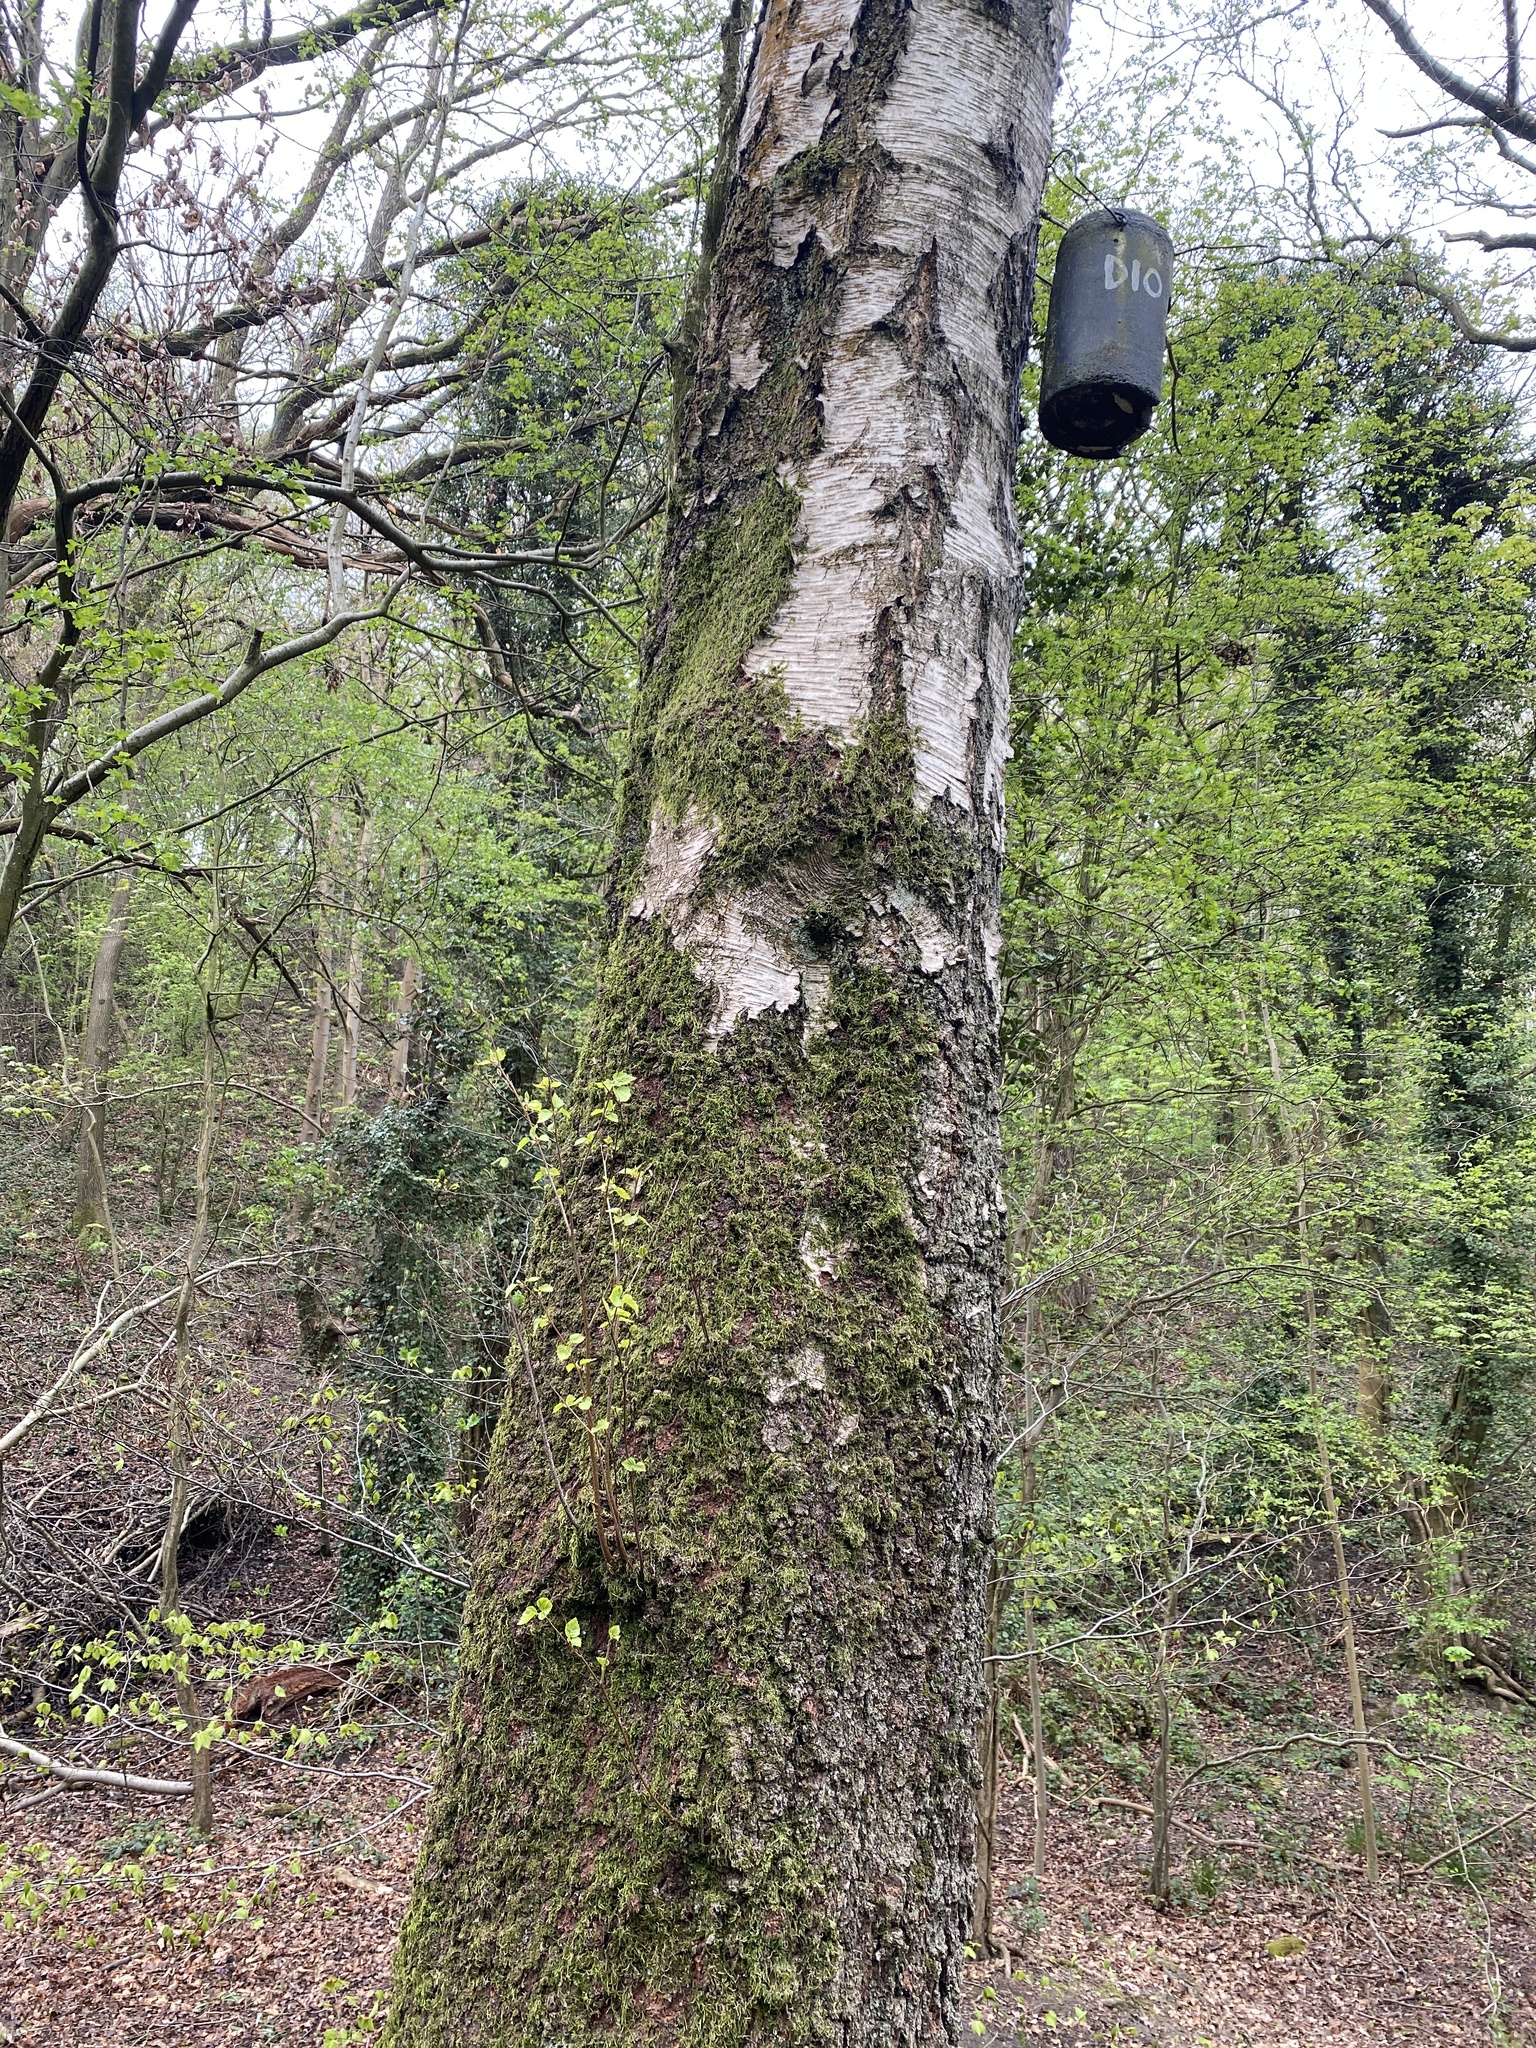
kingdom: Plantae
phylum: Tracheophyta
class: Magnoliopsida
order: Fagales
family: Betulaceae
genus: Betula
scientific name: Betula pendula
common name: Silver birch
